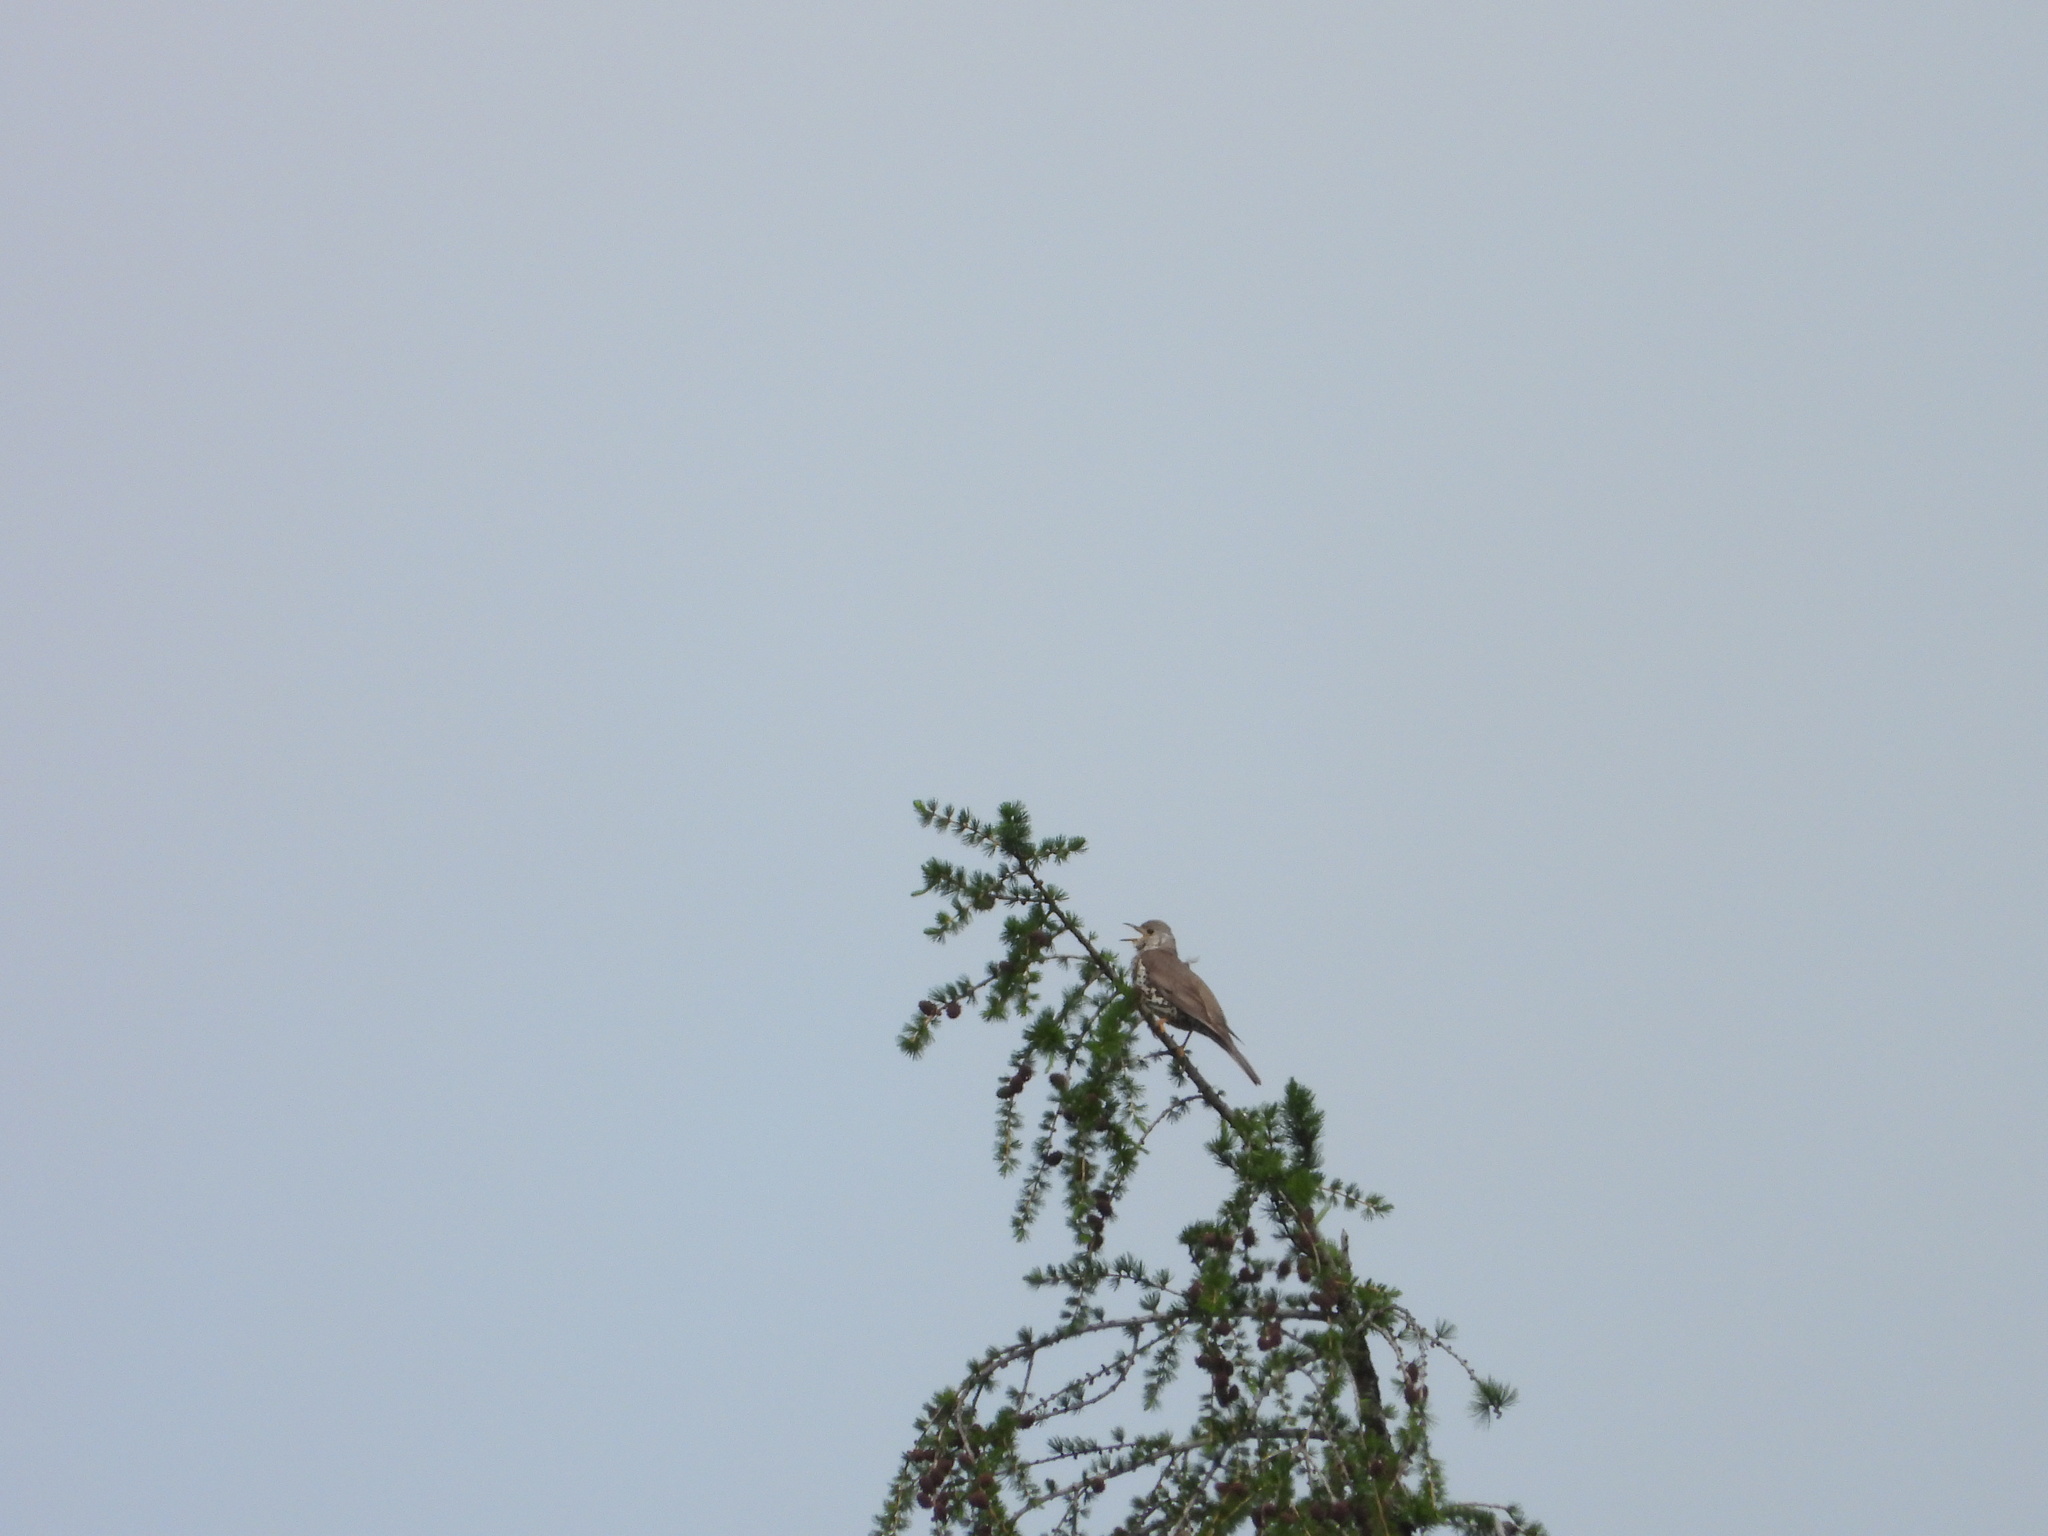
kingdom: Animalia
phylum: Chordata
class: Aves
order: Passeriformes
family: Turdidae
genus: Turdus
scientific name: Turdus viscivorus
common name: Mistle thrush
